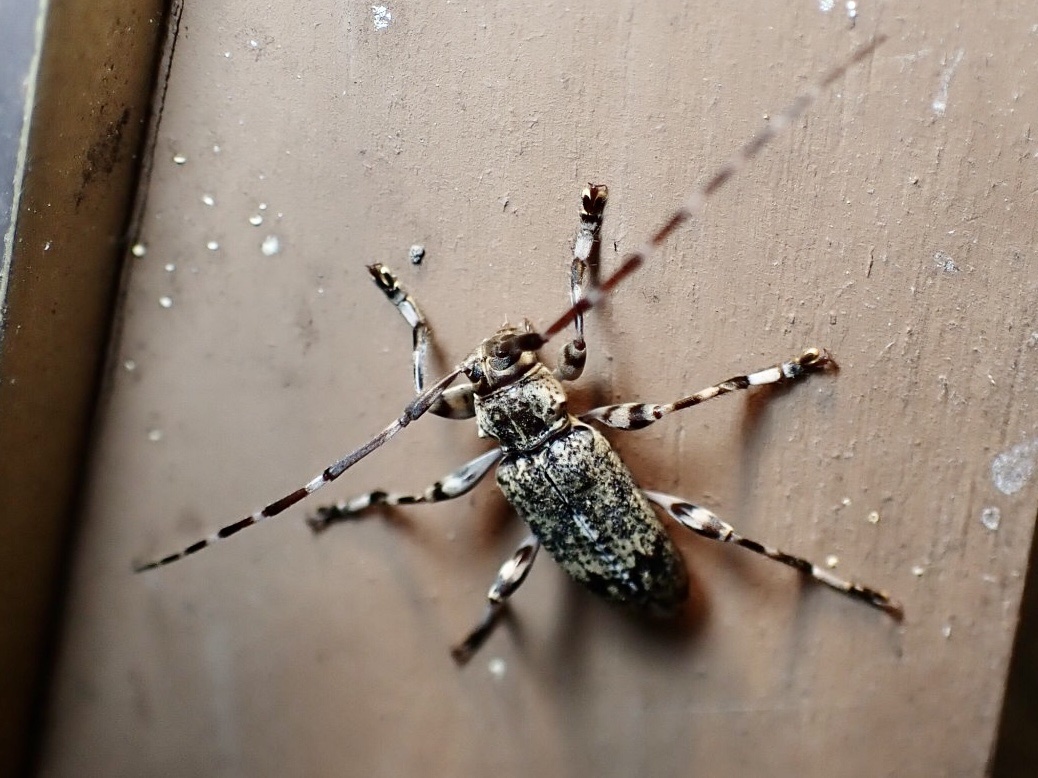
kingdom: Animalia
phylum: Arthropoda
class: Insecta
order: Coleoptera
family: Cerambycidae
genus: Graphisurus
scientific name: Graphisurus fasciatus
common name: Banded graphisurus
